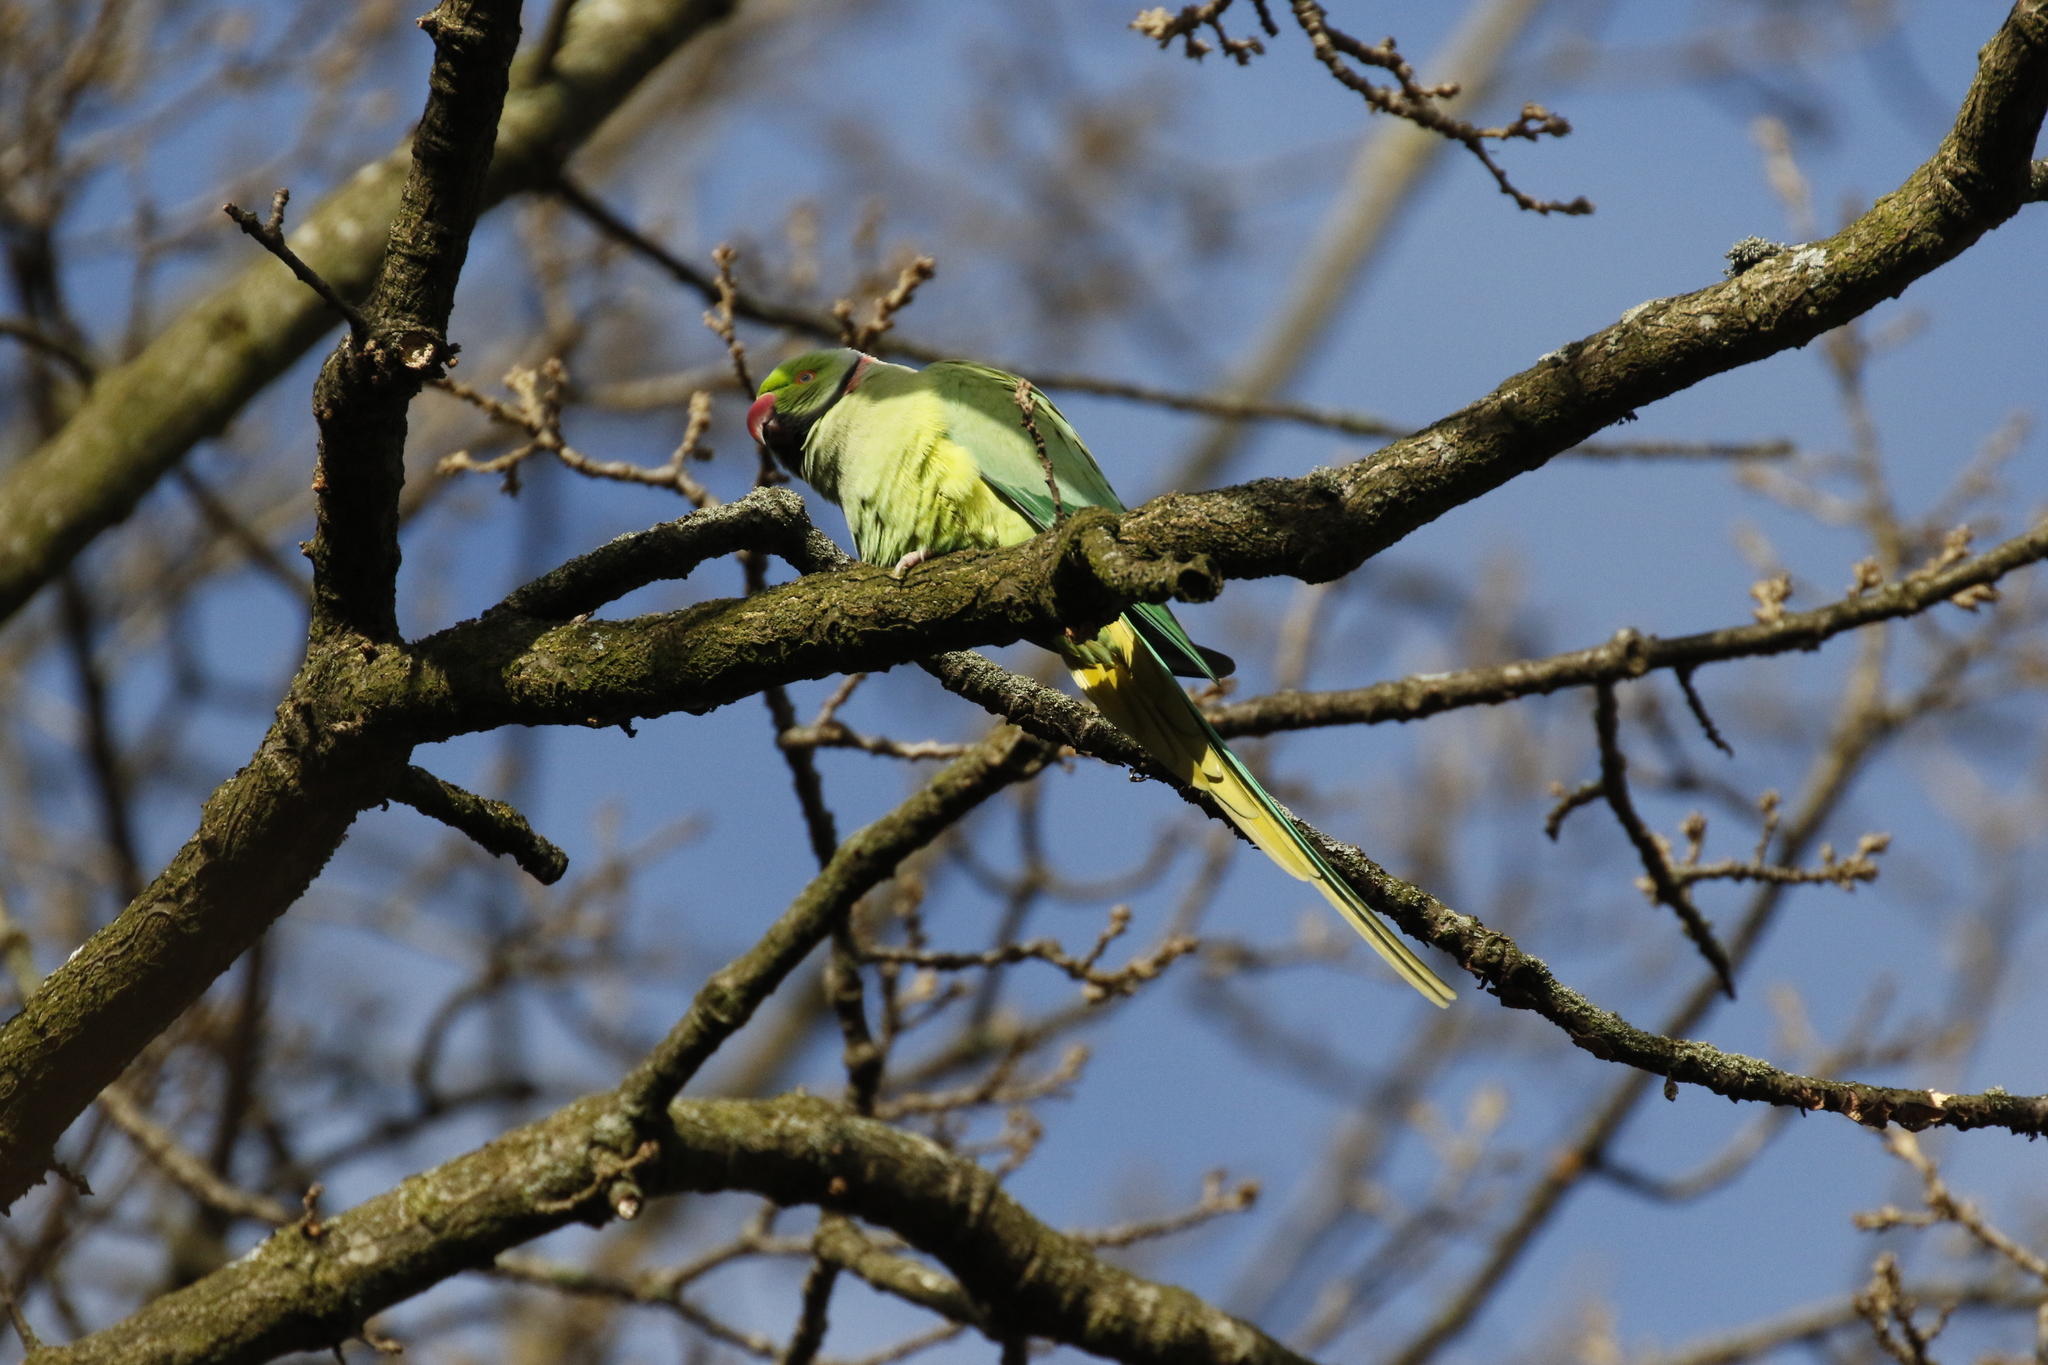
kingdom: Animalia
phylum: Chordata
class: Aves
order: Psittaciformes
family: Psittacidae
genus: Psittacula
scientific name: Psittacula krameri
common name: Rose-ringed parakeet
